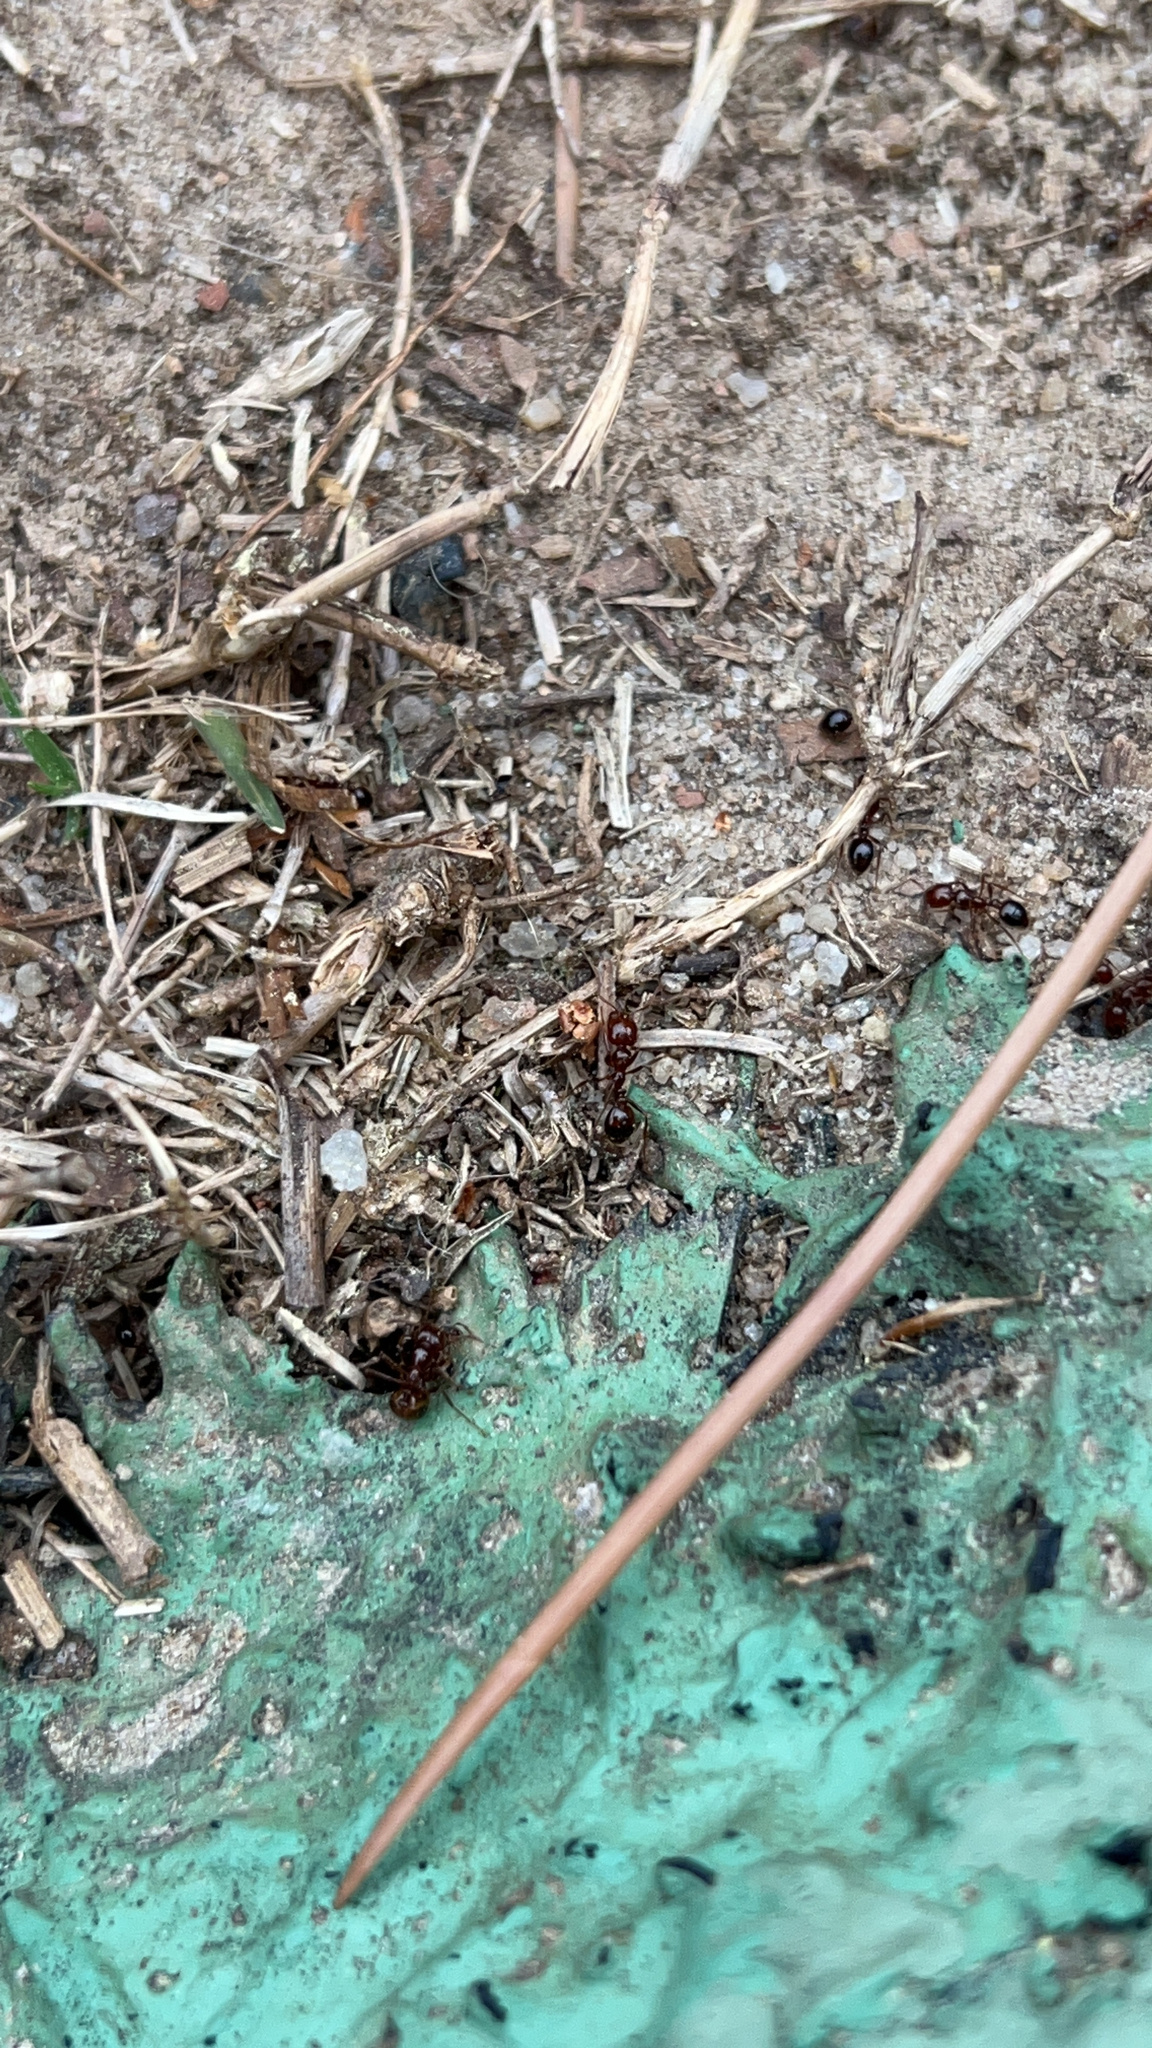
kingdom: Animalia
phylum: Arthropoda
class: Insecta
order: Hymenoptera
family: Formicidae
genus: Solenopsis
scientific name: Solenopsis invicta
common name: Red imported fire ant
